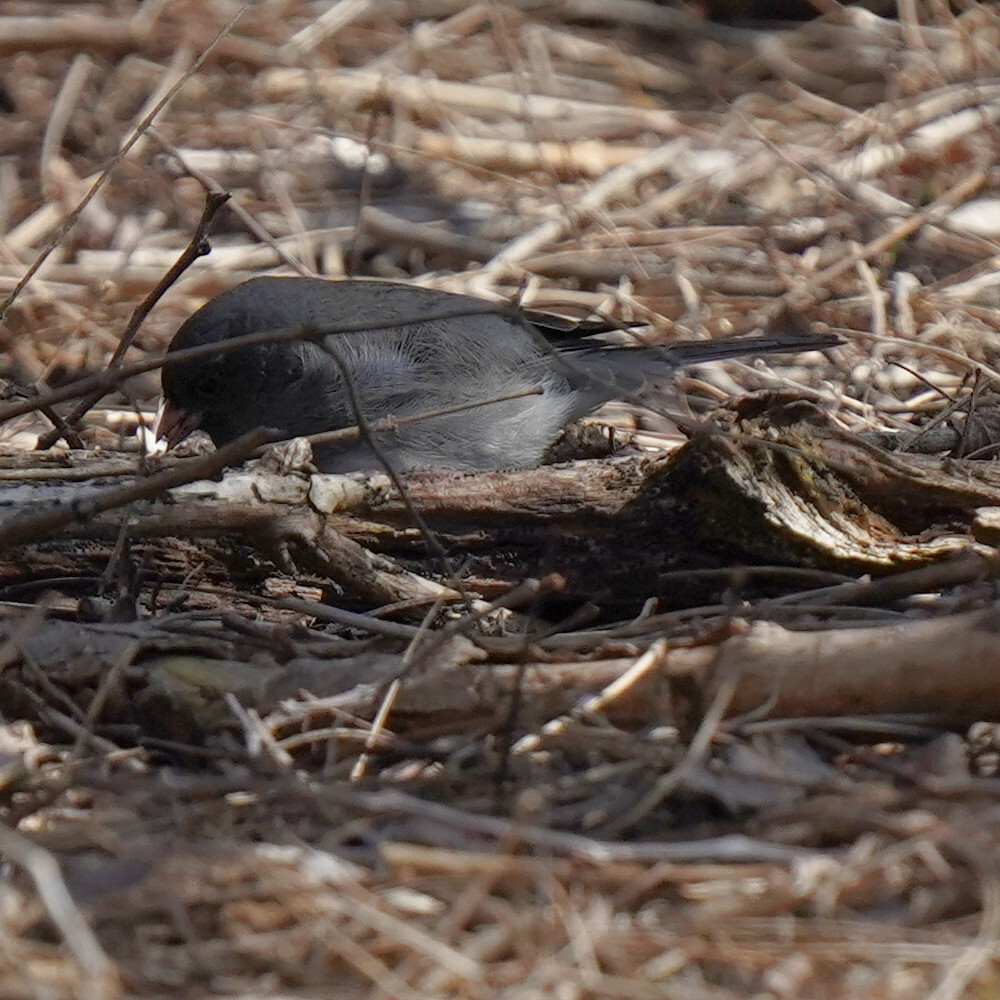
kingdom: Animalia
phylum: Chordata
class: Aves
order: Passeriformes
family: Passerellidae
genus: Junco
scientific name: Junco hyemalis
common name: Dark-eyed junco
